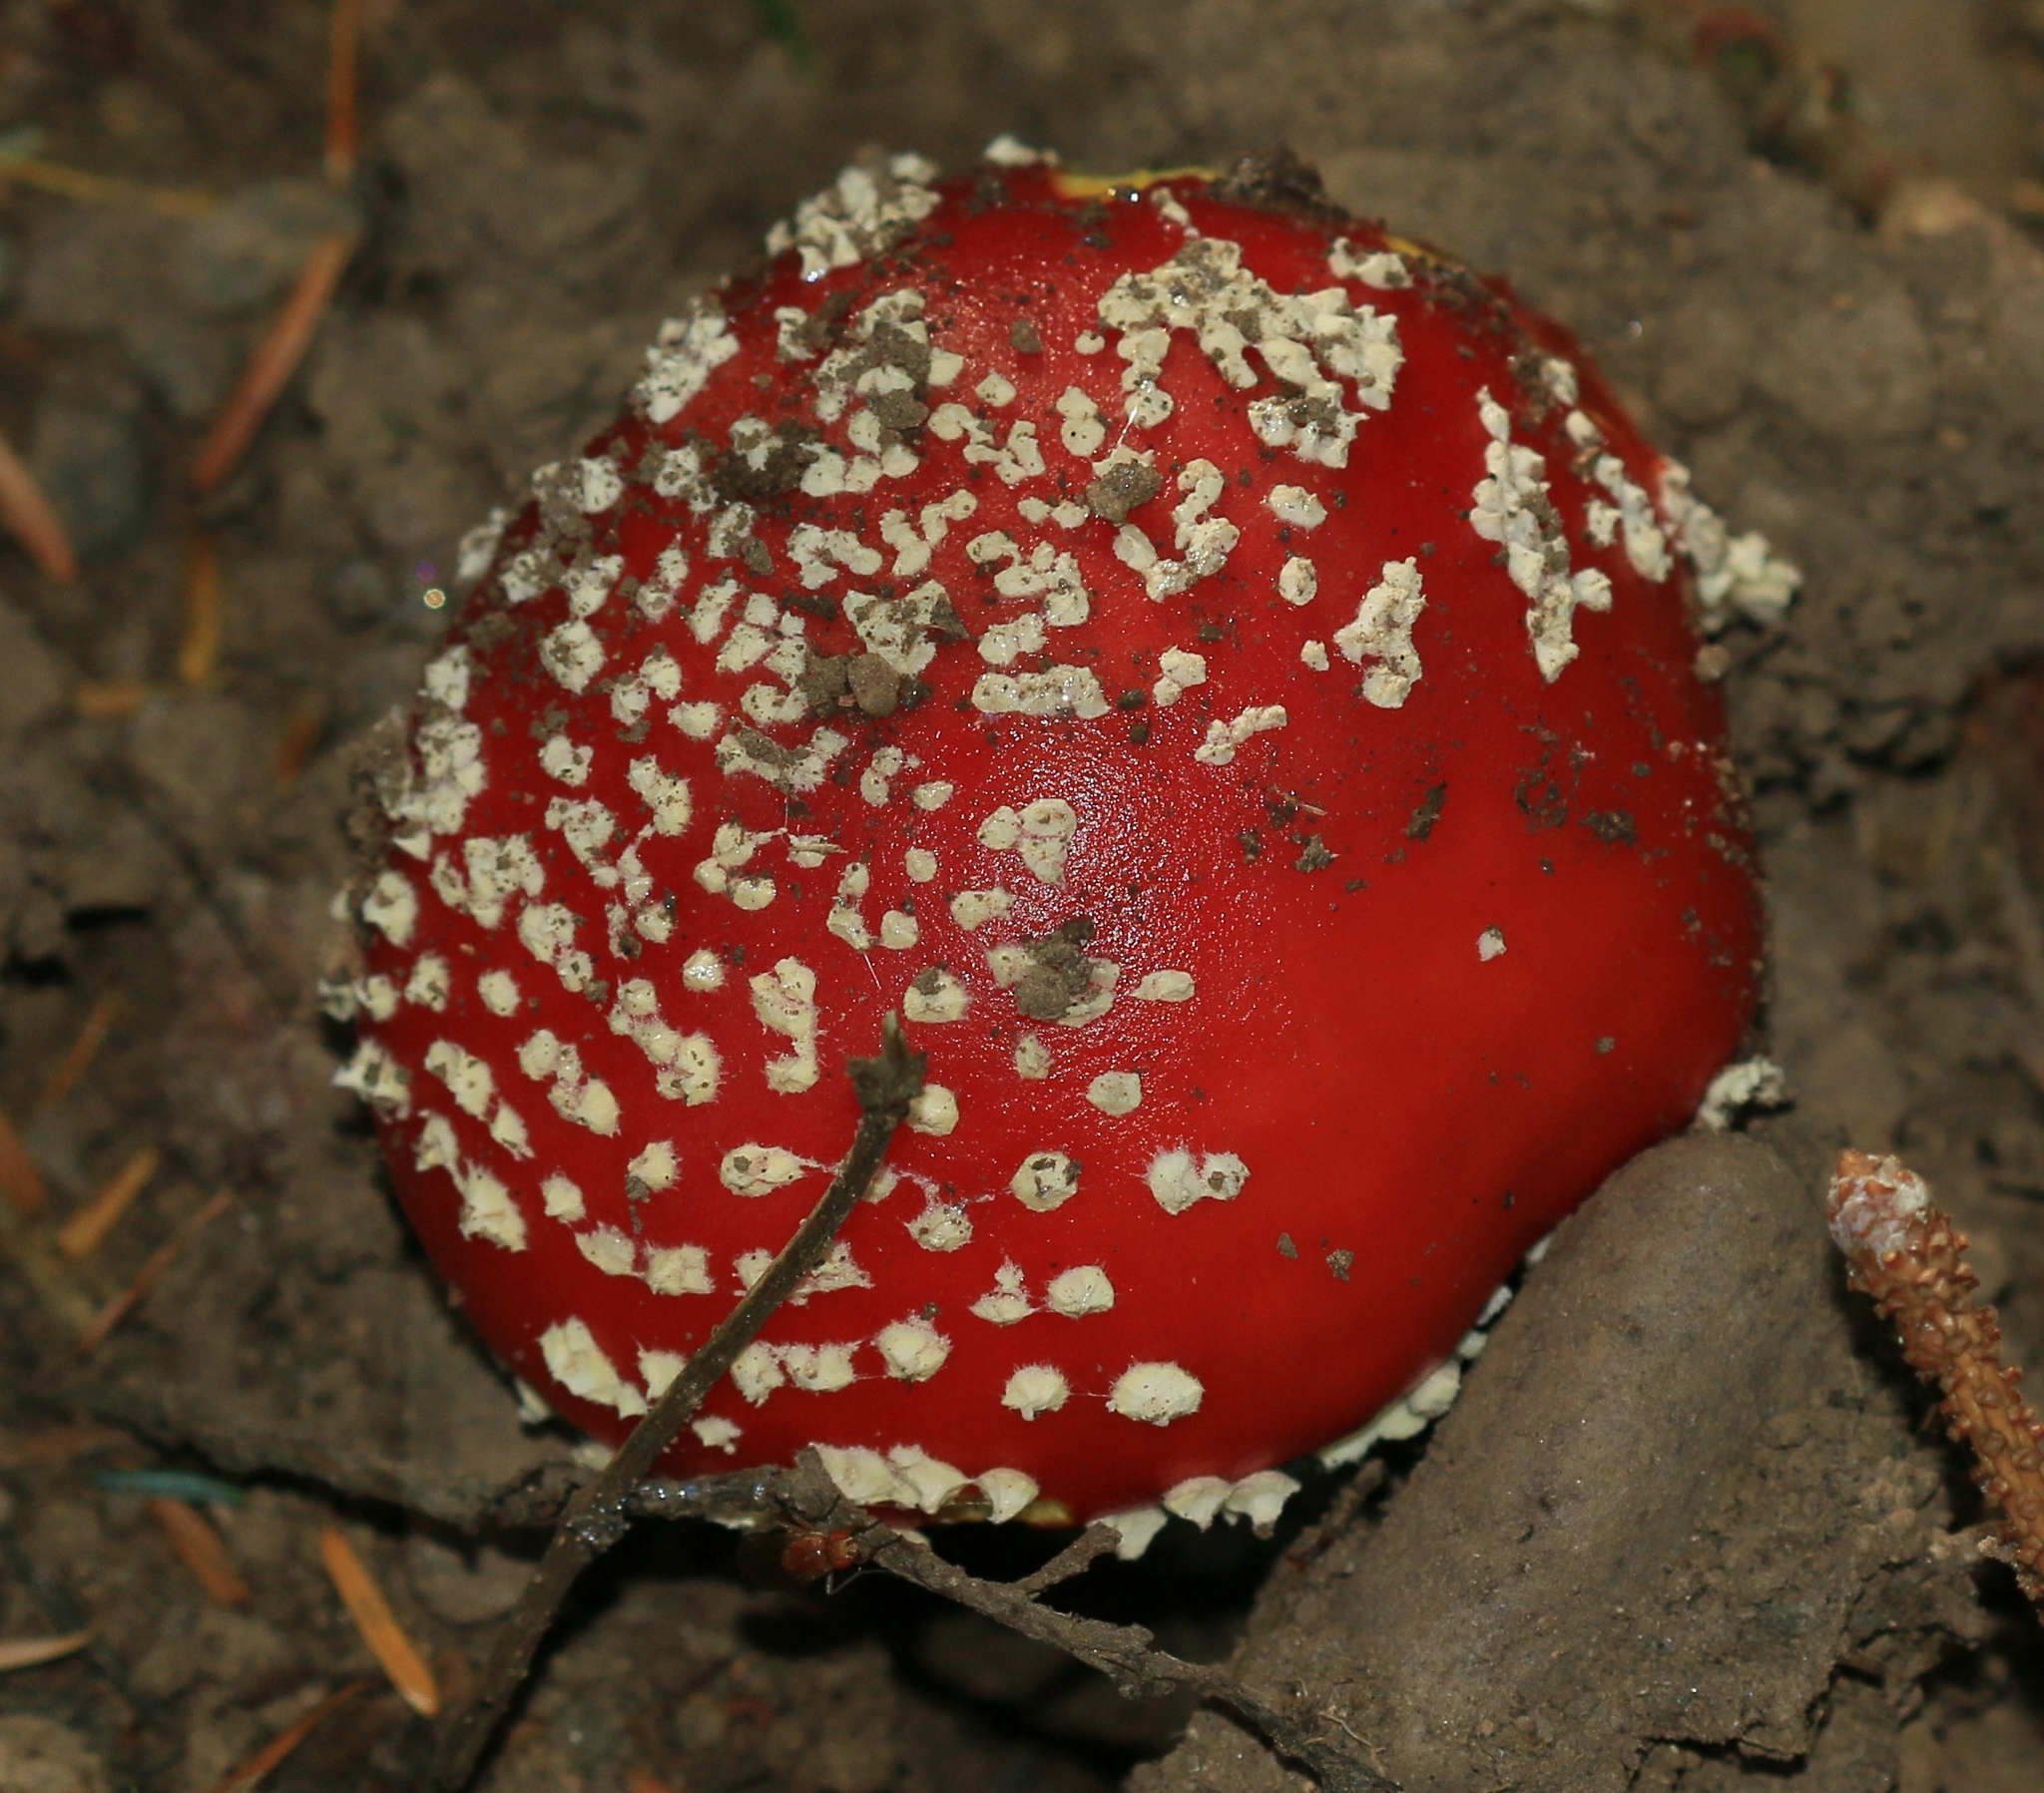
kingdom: Fungi
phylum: Basidiomycota
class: Agaricomycetes
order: Agaricales
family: Amanitaceae
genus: Amanita
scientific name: Amanita muscaria
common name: Fly agaric
